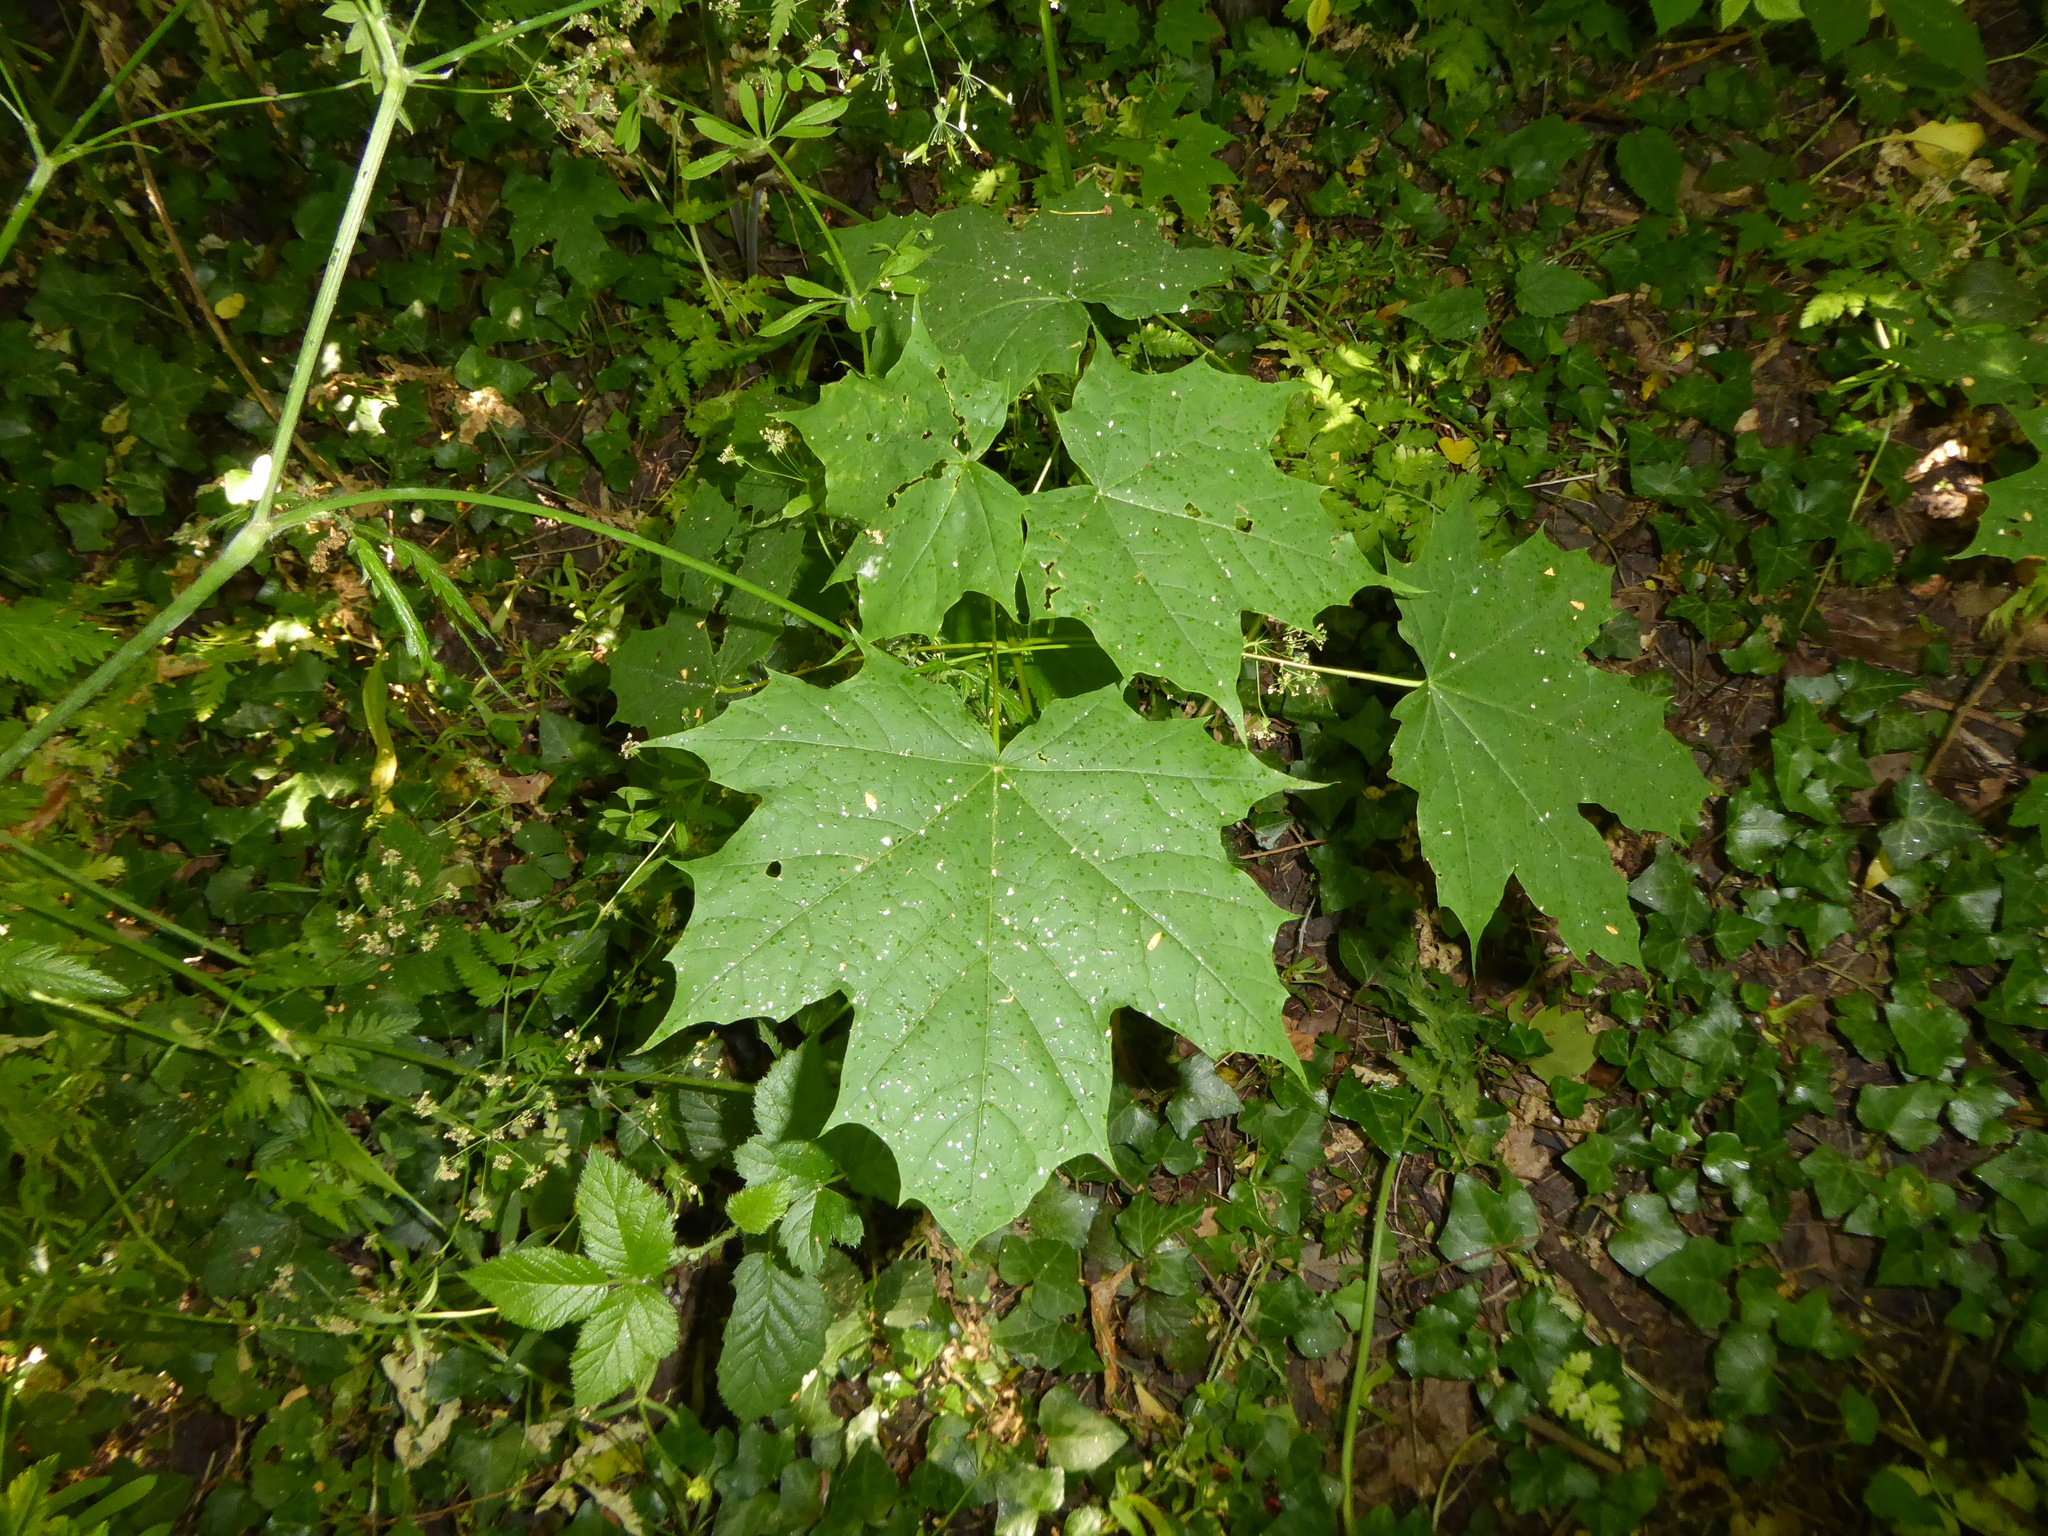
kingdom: Plantae
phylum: Tracheophyta
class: Magnoliopsida
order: Sapindales
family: Sapindaceae
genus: Acer
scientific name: Acer platanoides
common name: Norway maple
